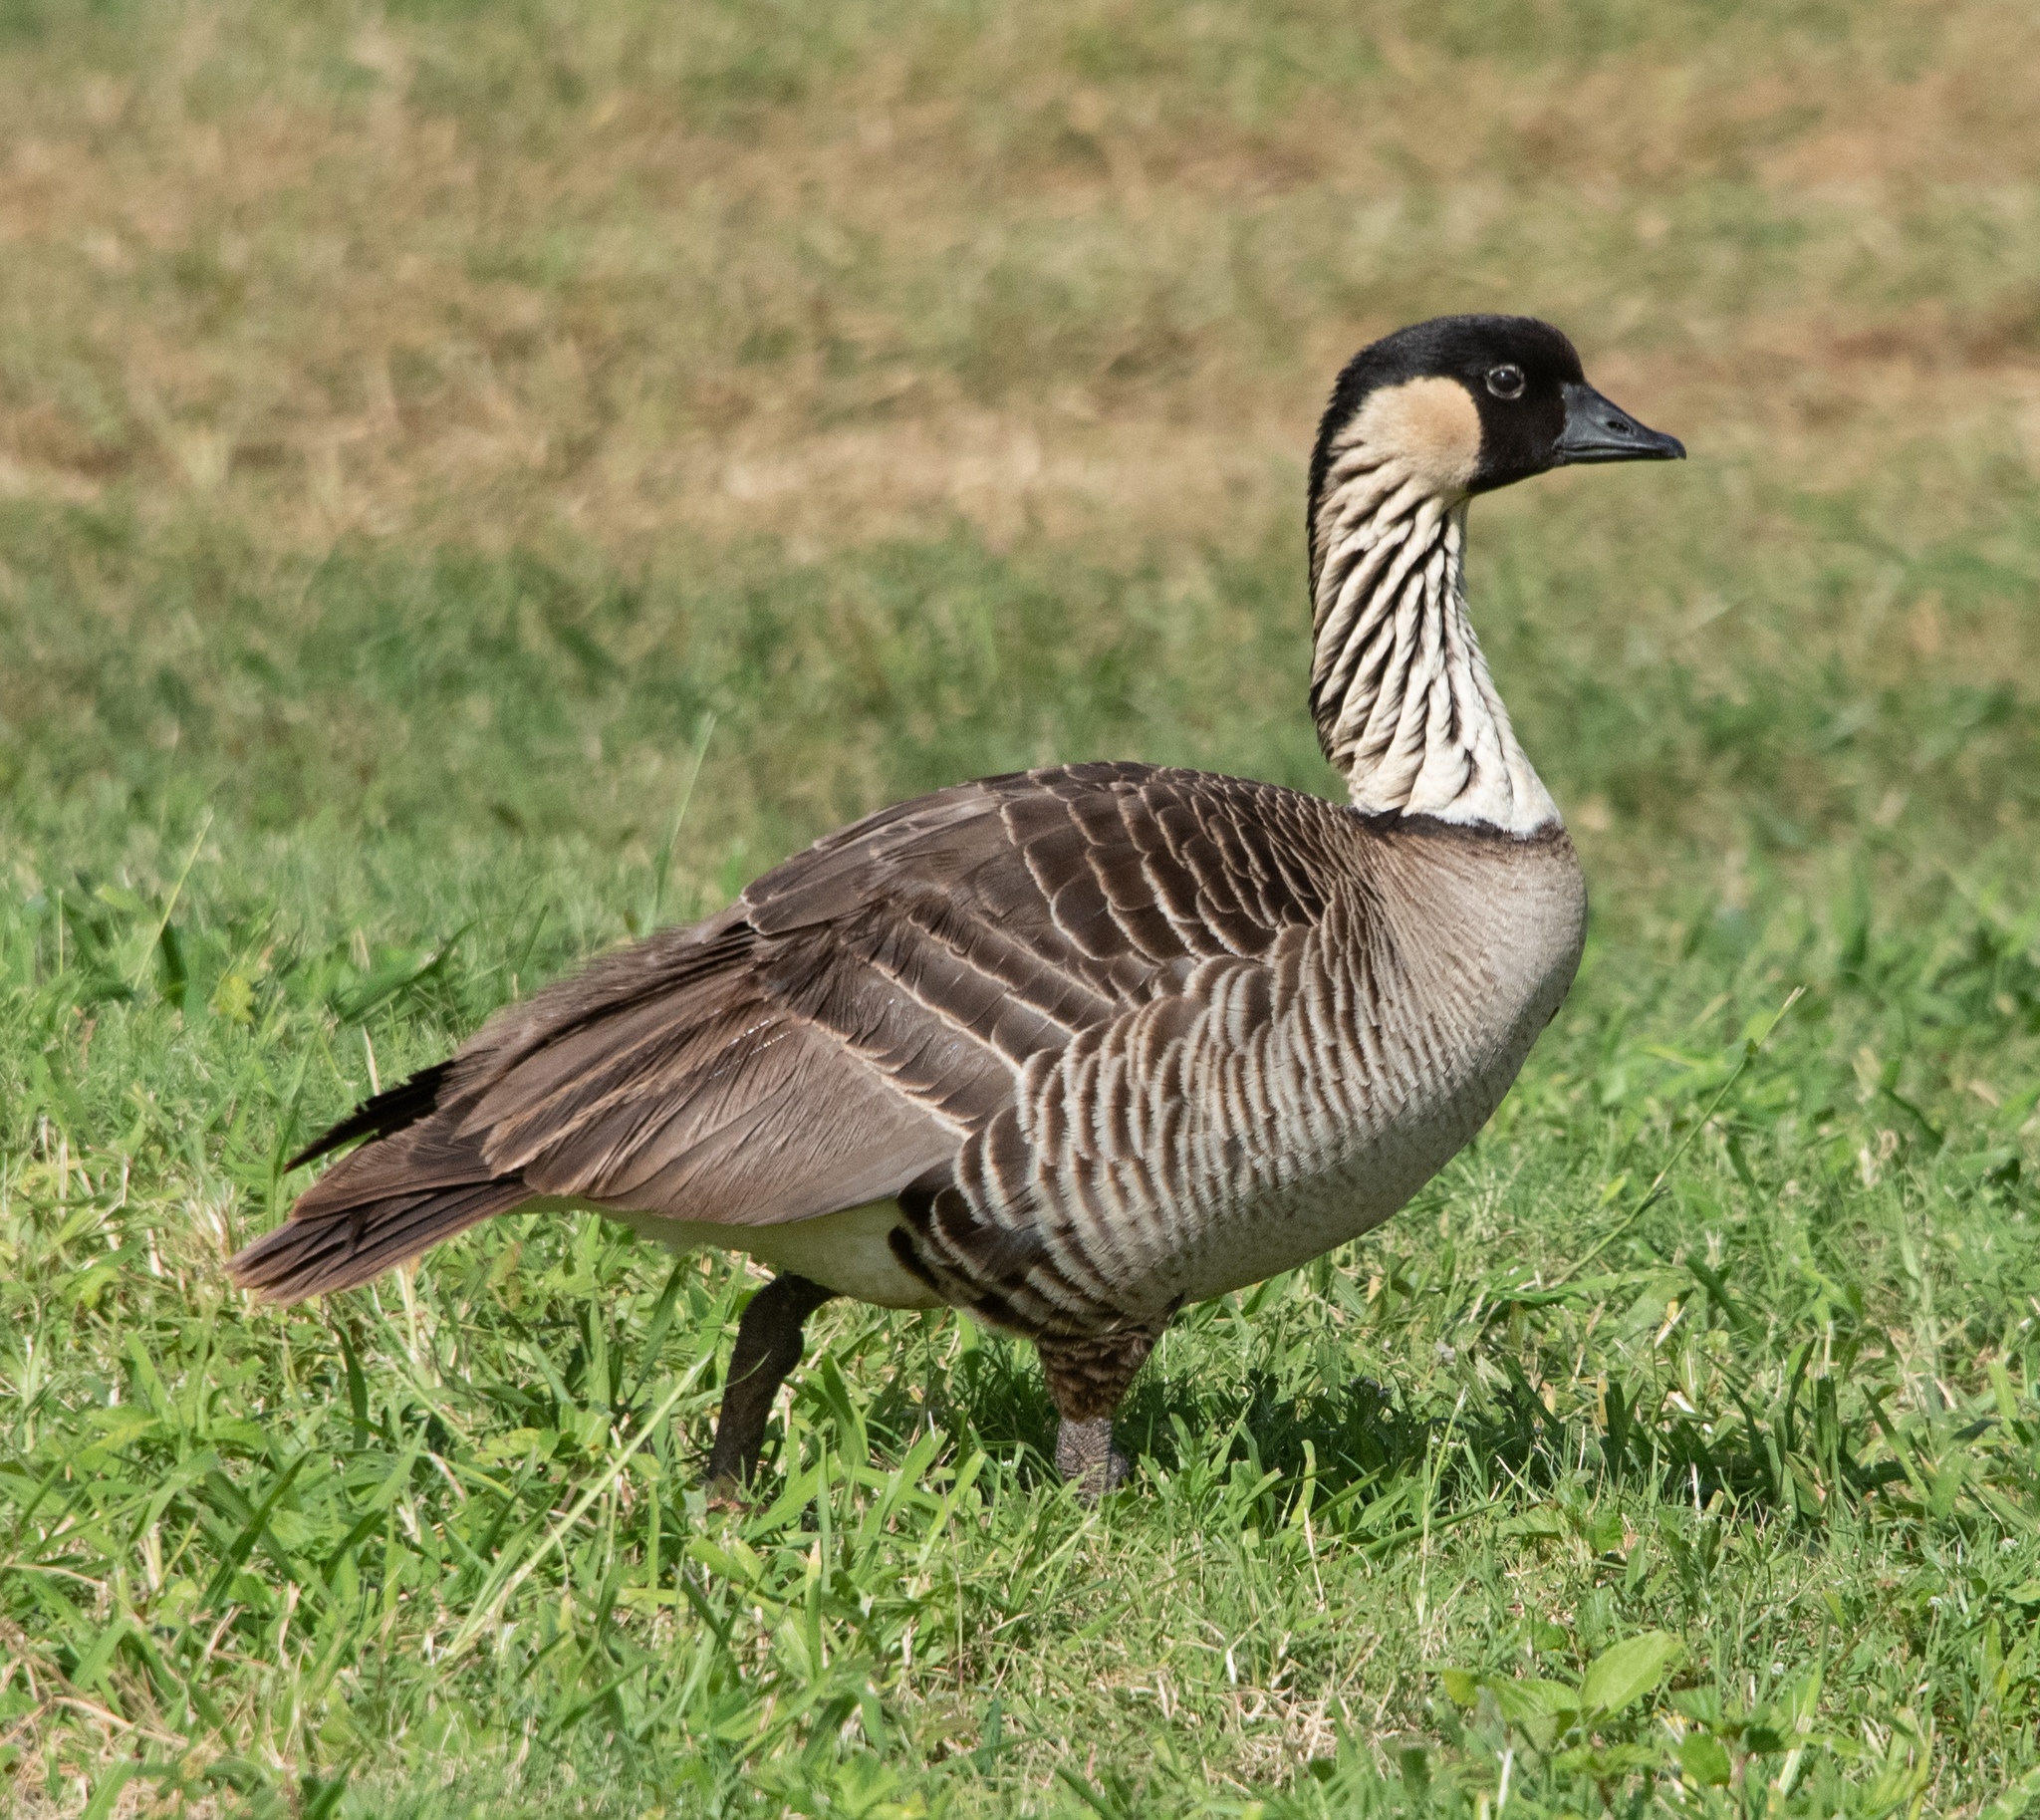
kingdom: Animalia
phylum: Chordata
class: Aves
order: Anseriformes
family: Anatidae
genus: Branta
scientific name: Branta sandvicensis
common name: Nene
